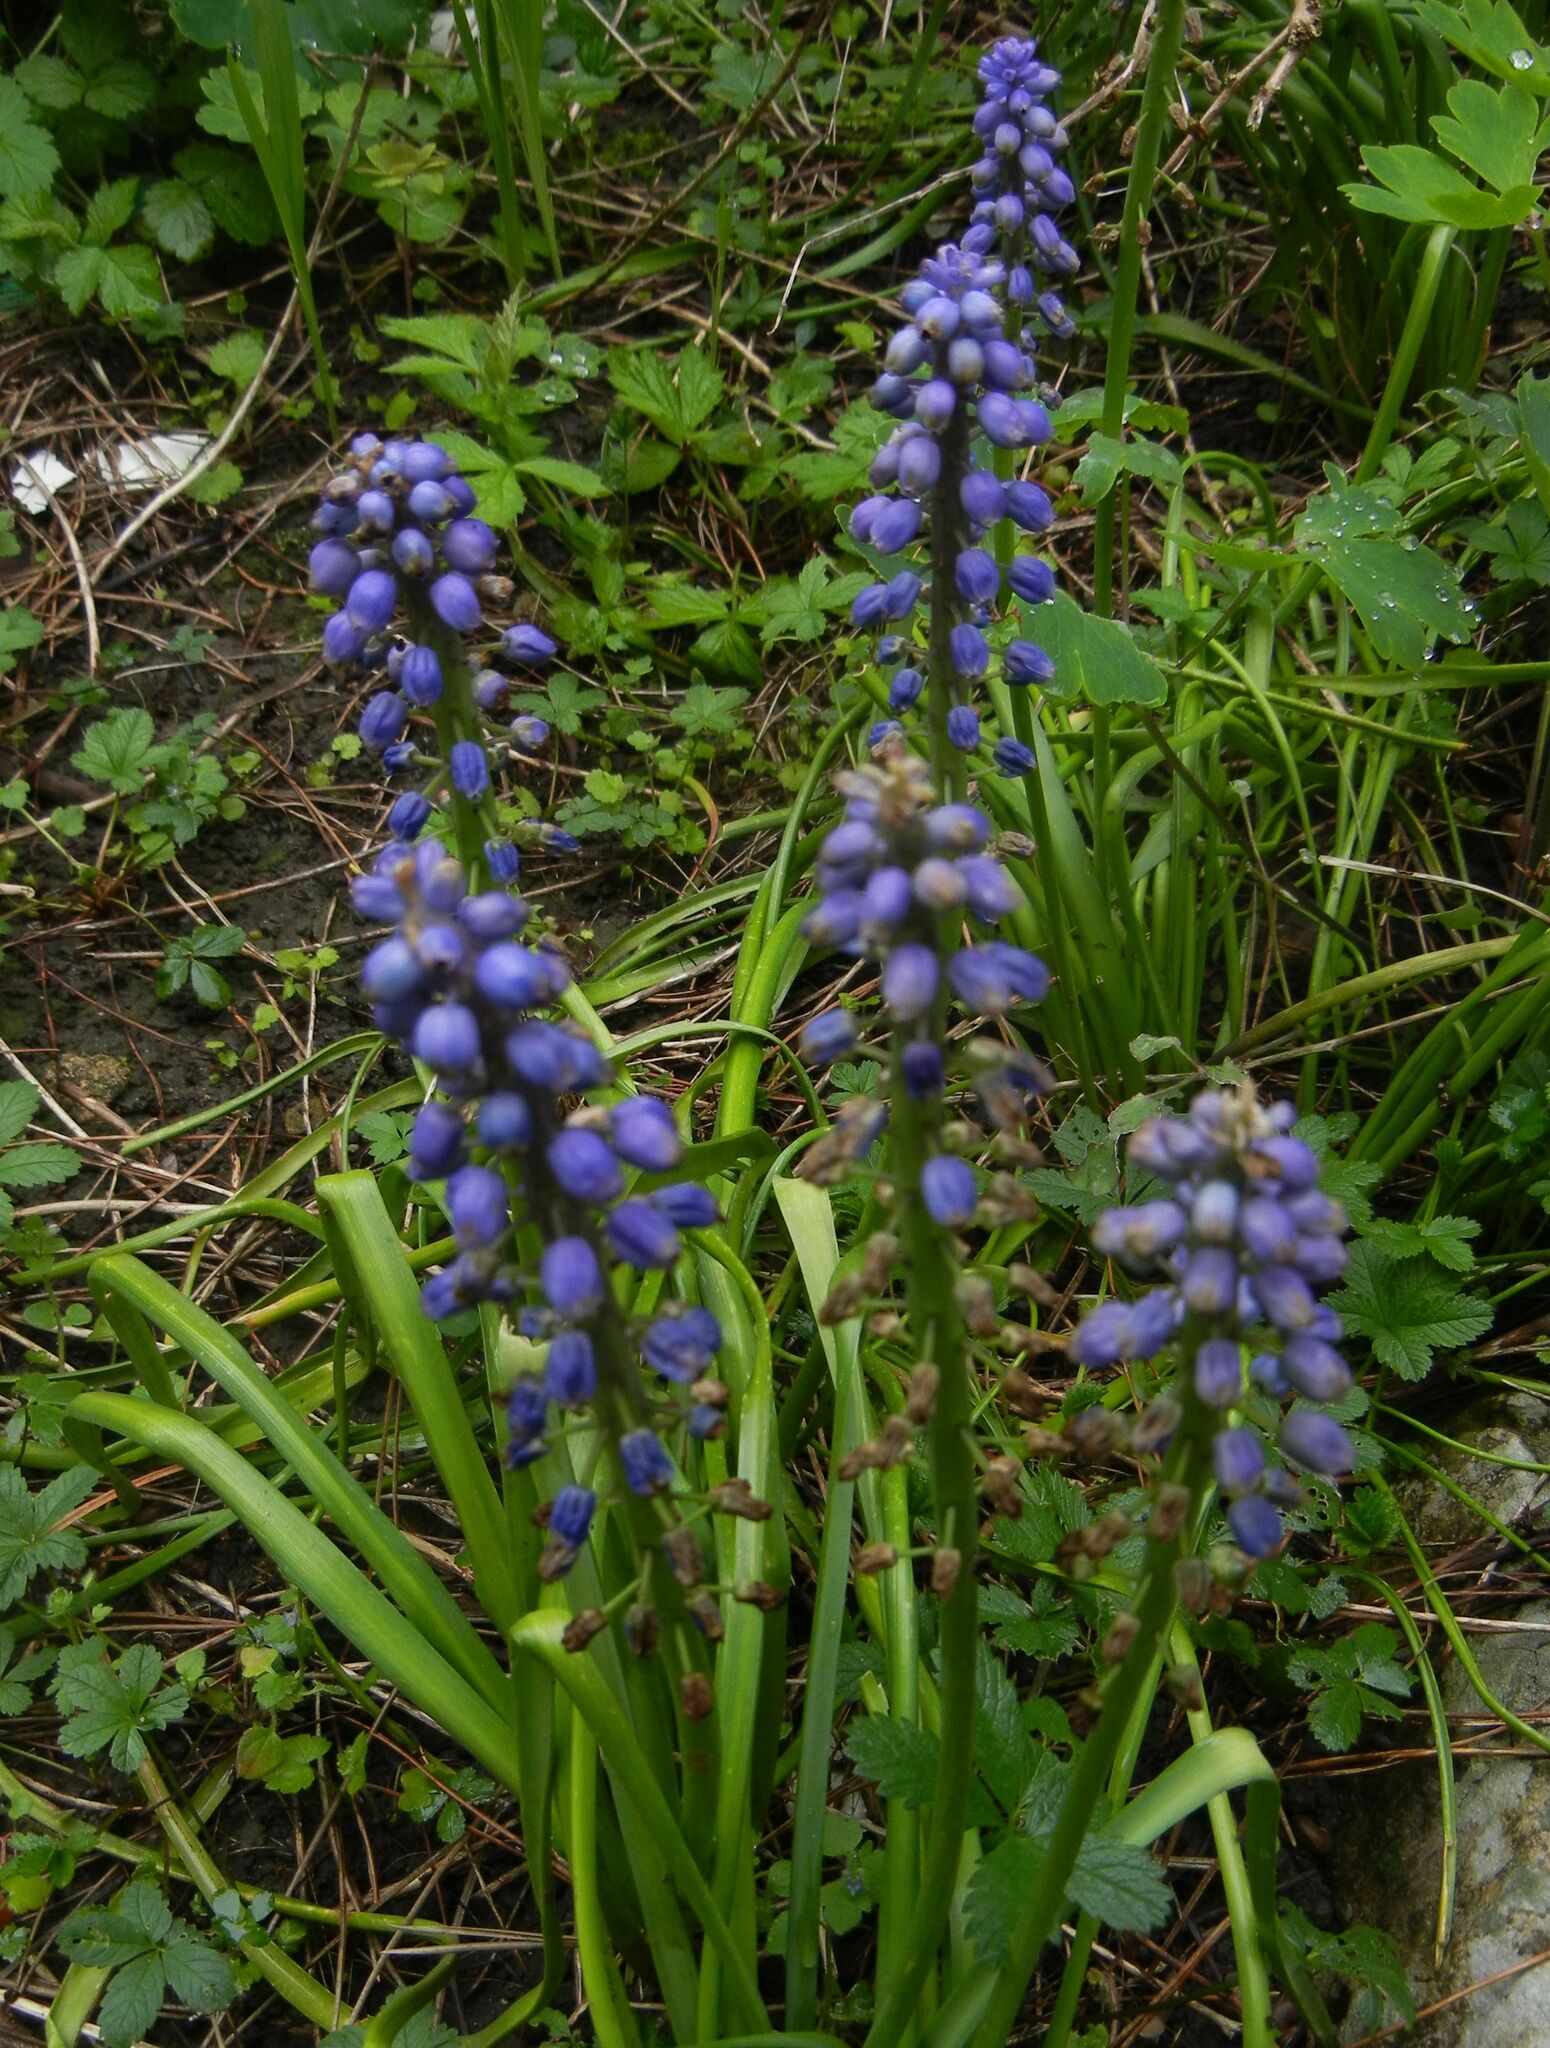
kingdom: Plantae
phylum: Tracheophyta
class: Liliopsida
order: Asparagales
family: Asparagaceae
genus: Muscari
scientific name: Muscari armeniacum
